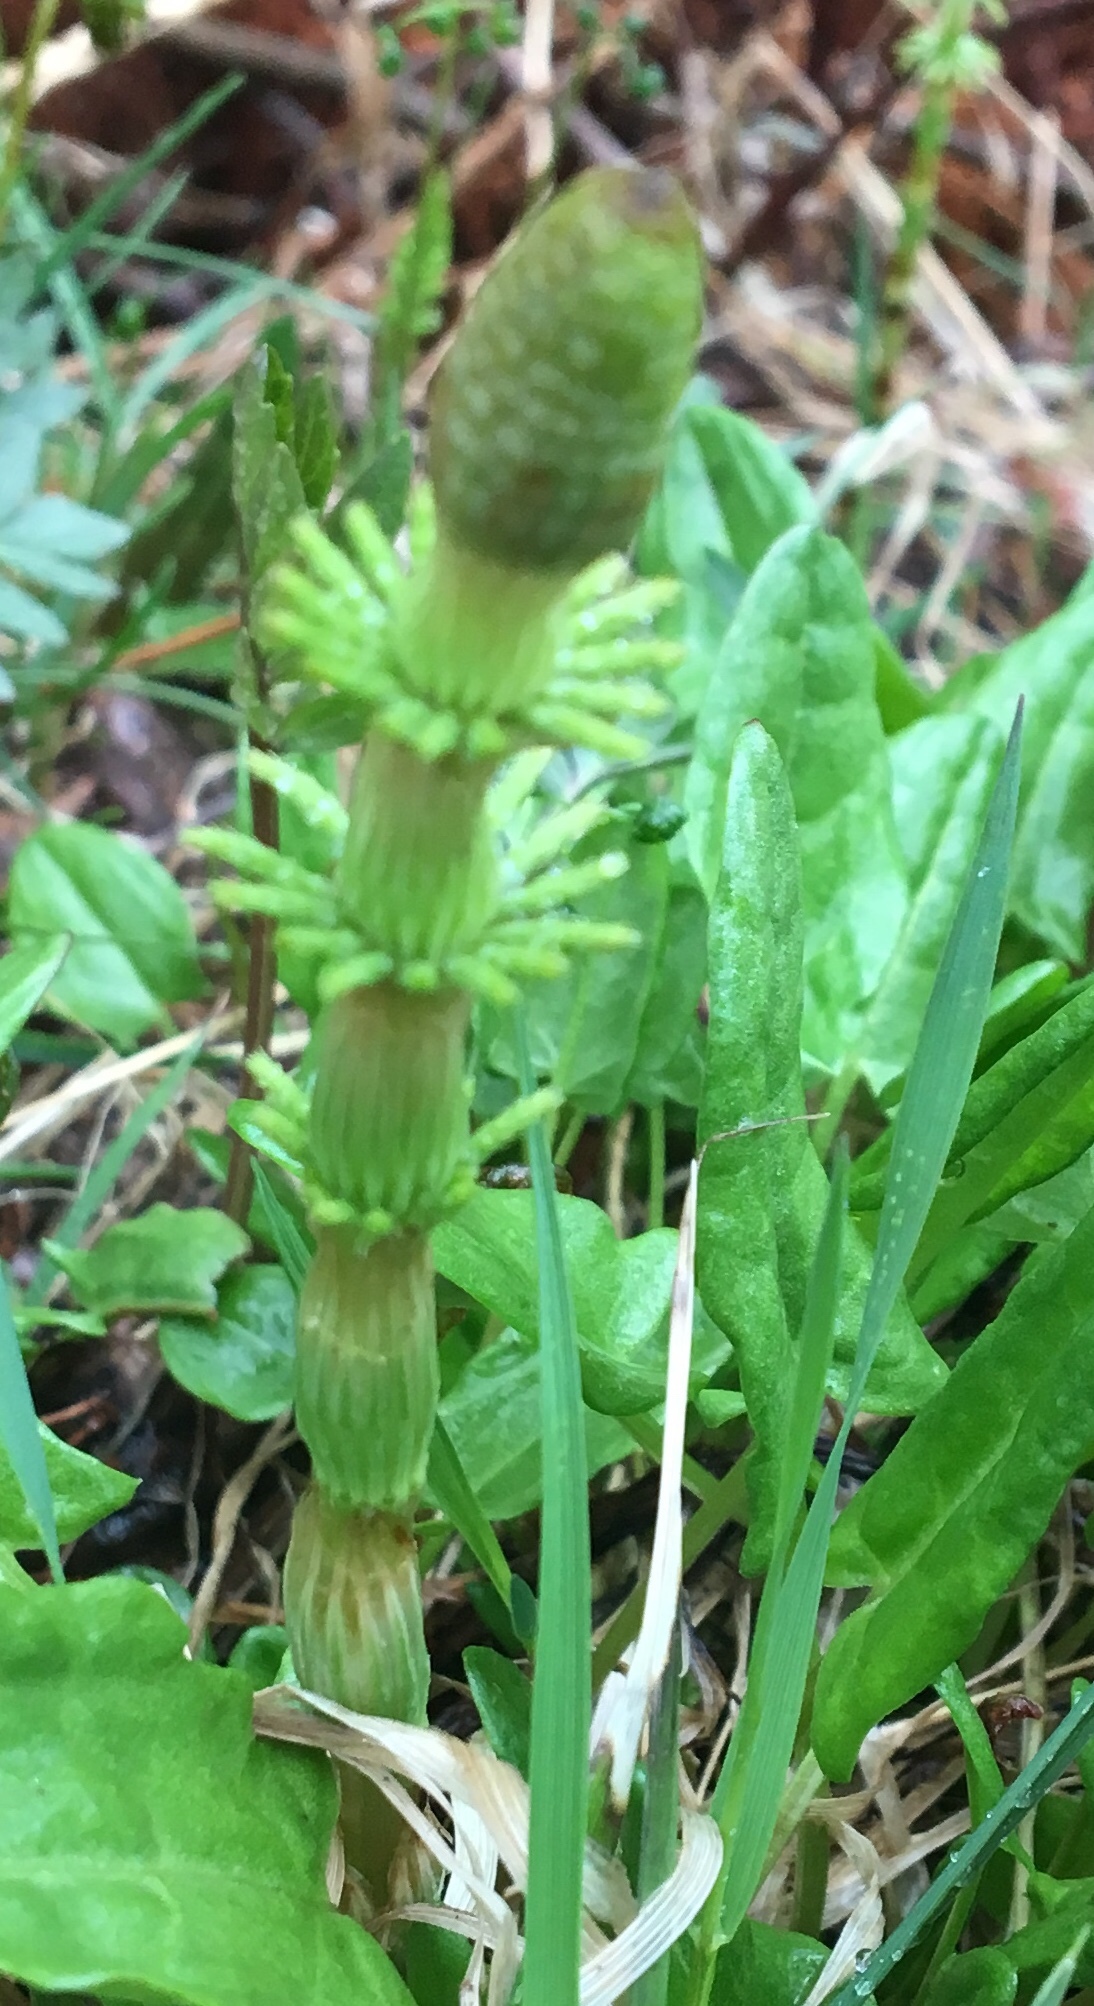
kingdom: Plantae
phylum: Tracheophyta
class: Polypodiopsida
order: Equisetales
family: Equisetaceae
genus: Equisetum
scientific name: Equisetum sylvaticum
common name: Wood horsetail
